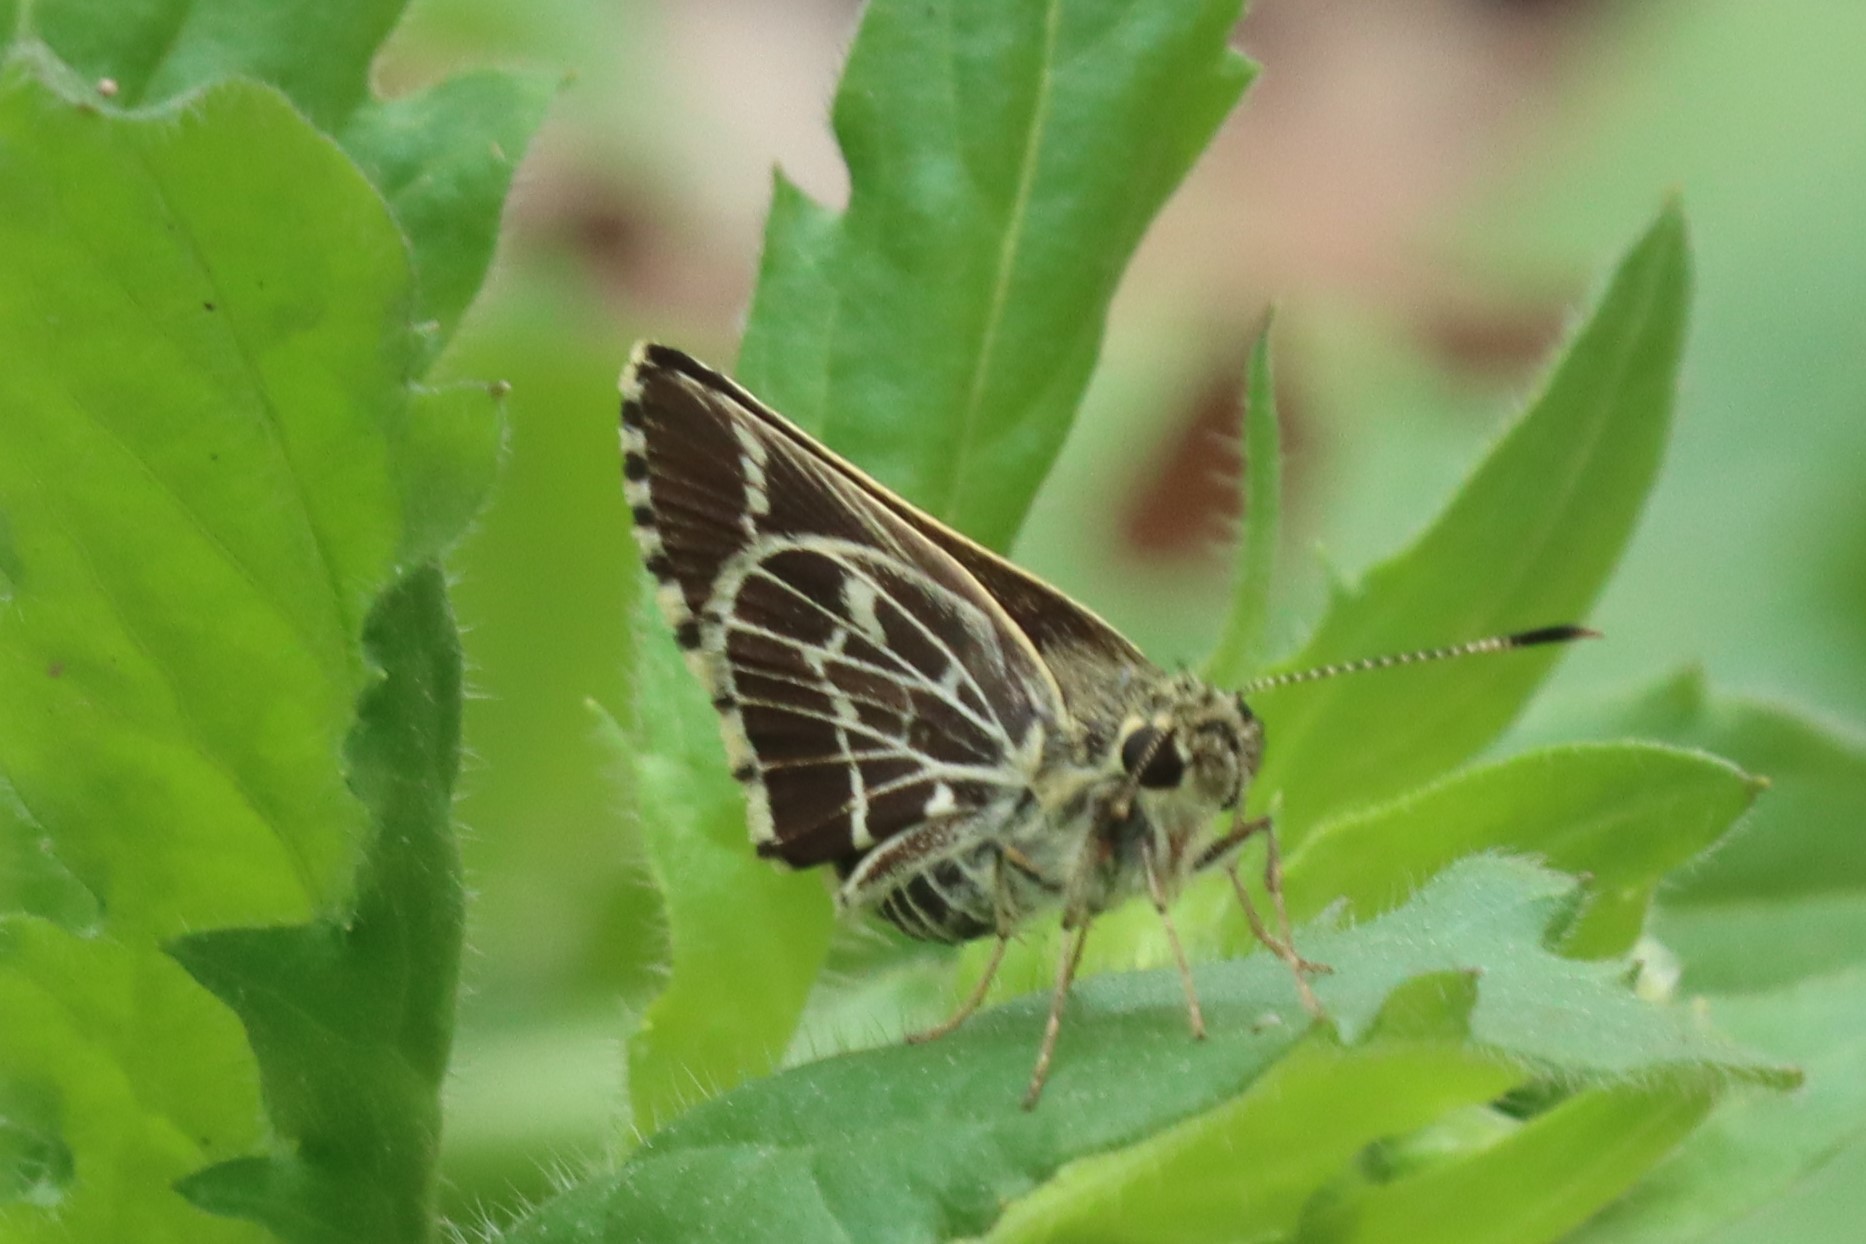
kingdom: Animalia
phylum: Arthropoda
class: Insecta
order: Lepidoptera
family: Hesperiidae
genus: Mastor
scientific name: Mastor aesculapius
